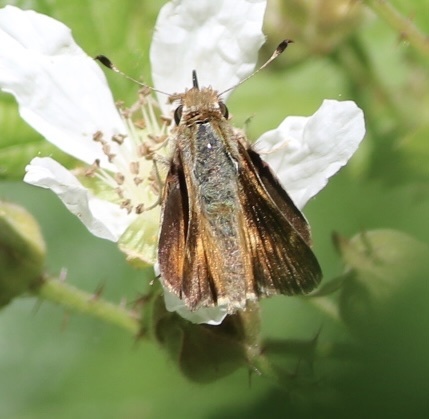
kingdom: Animalia
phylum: Arthropoda
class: Insecta
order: Lepidoptera
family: Hesperiidae
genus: Lon
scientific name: Lon melane
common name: Umber skipper
